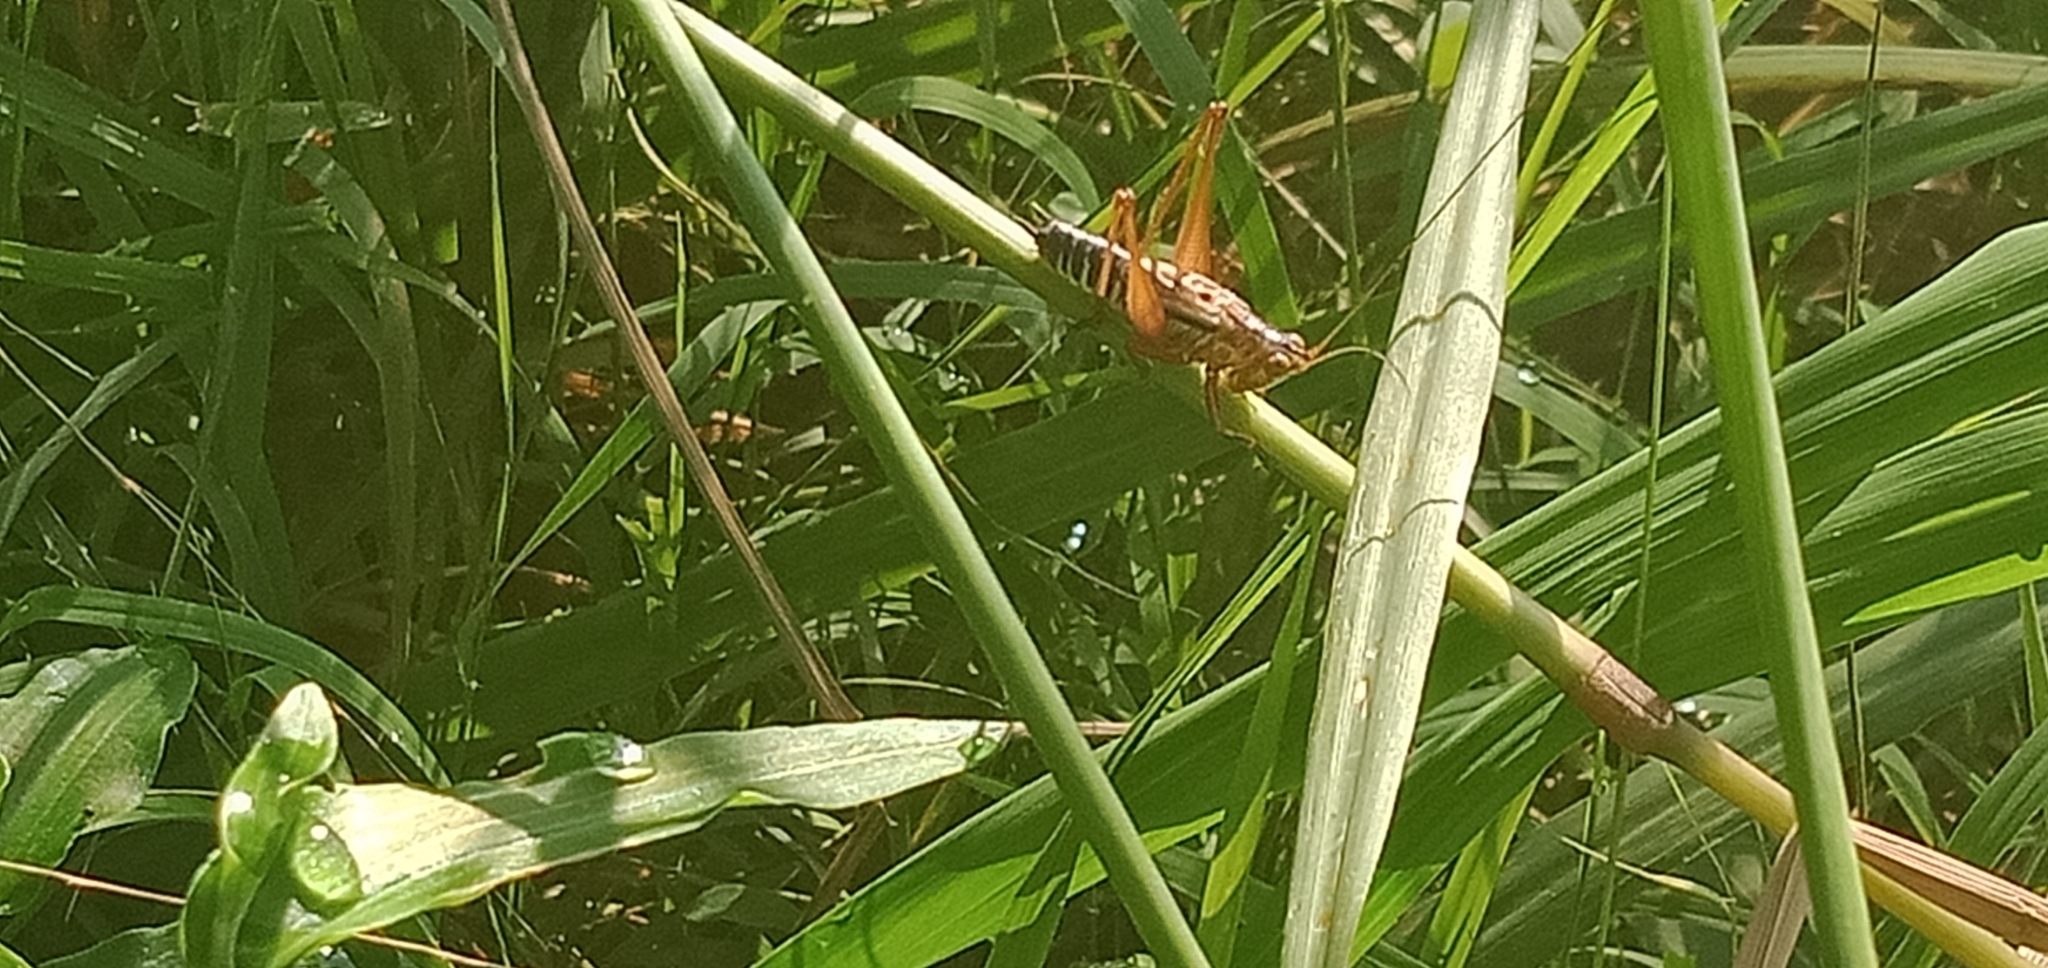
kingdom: Animalia
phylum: Arthropoda
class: Insecta
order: Orthoptera
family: Tettigoniidae
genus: Conocephalus
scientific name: Conocephalus semivittatus
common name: Blackish meadow katydid
